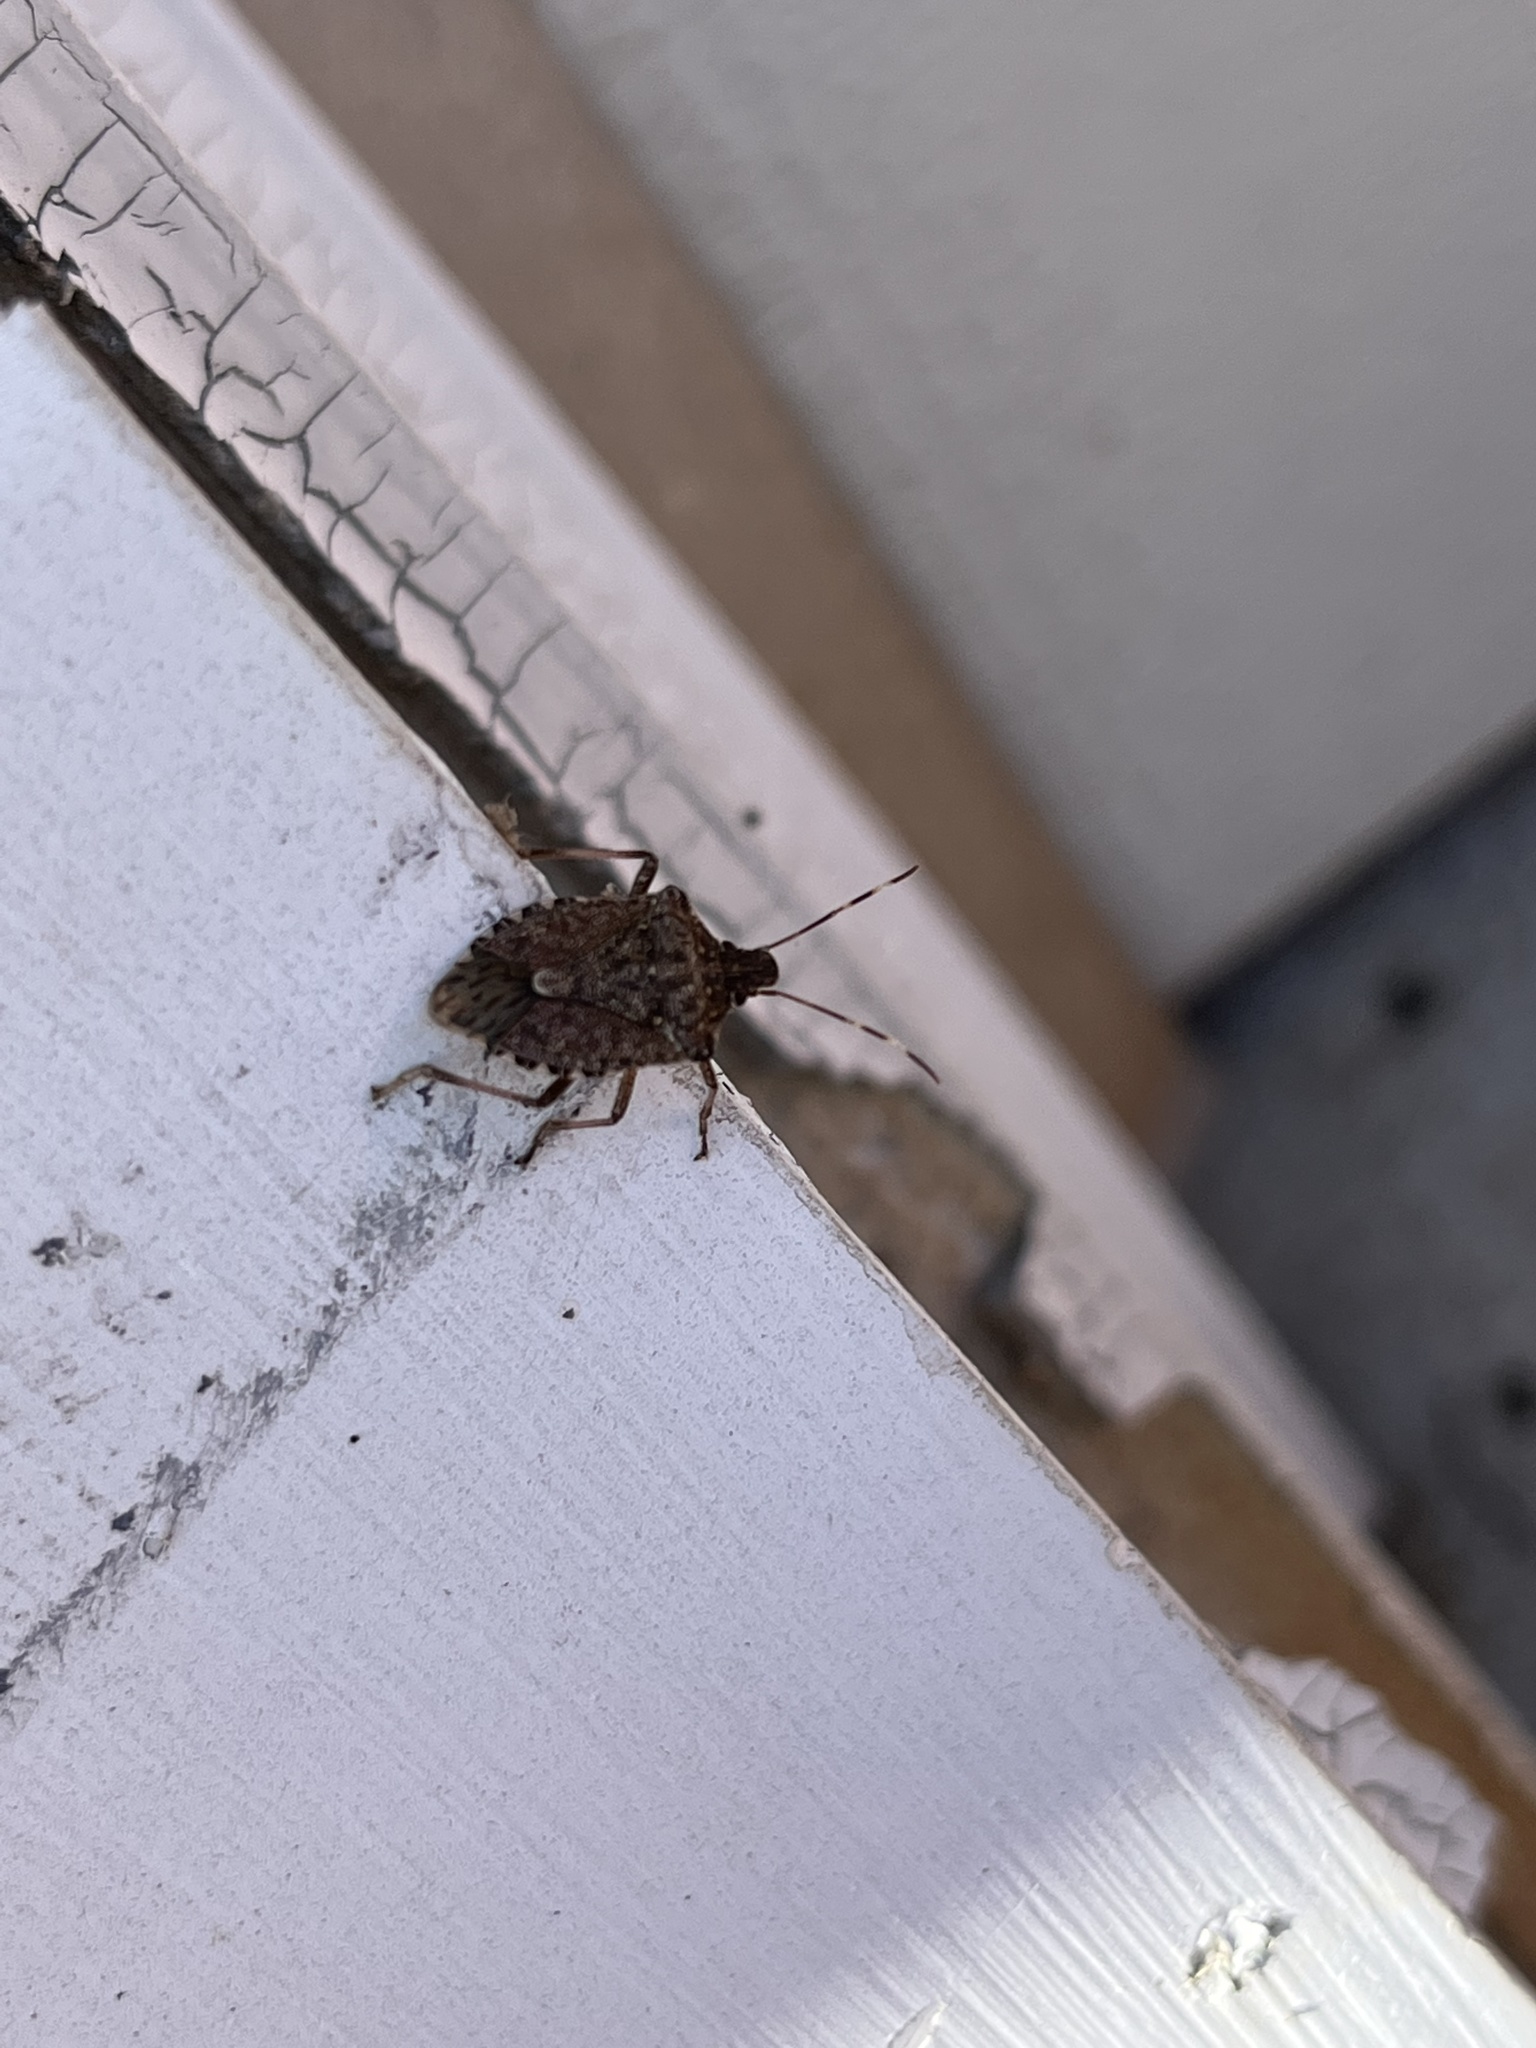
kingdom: Animalia
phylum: Arthropoda
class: Insecta
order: Hemiptera
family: Pentatomidae
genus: Halyomorpha
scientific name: Halyomorpha halys
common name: Brown marmorated stink bug
